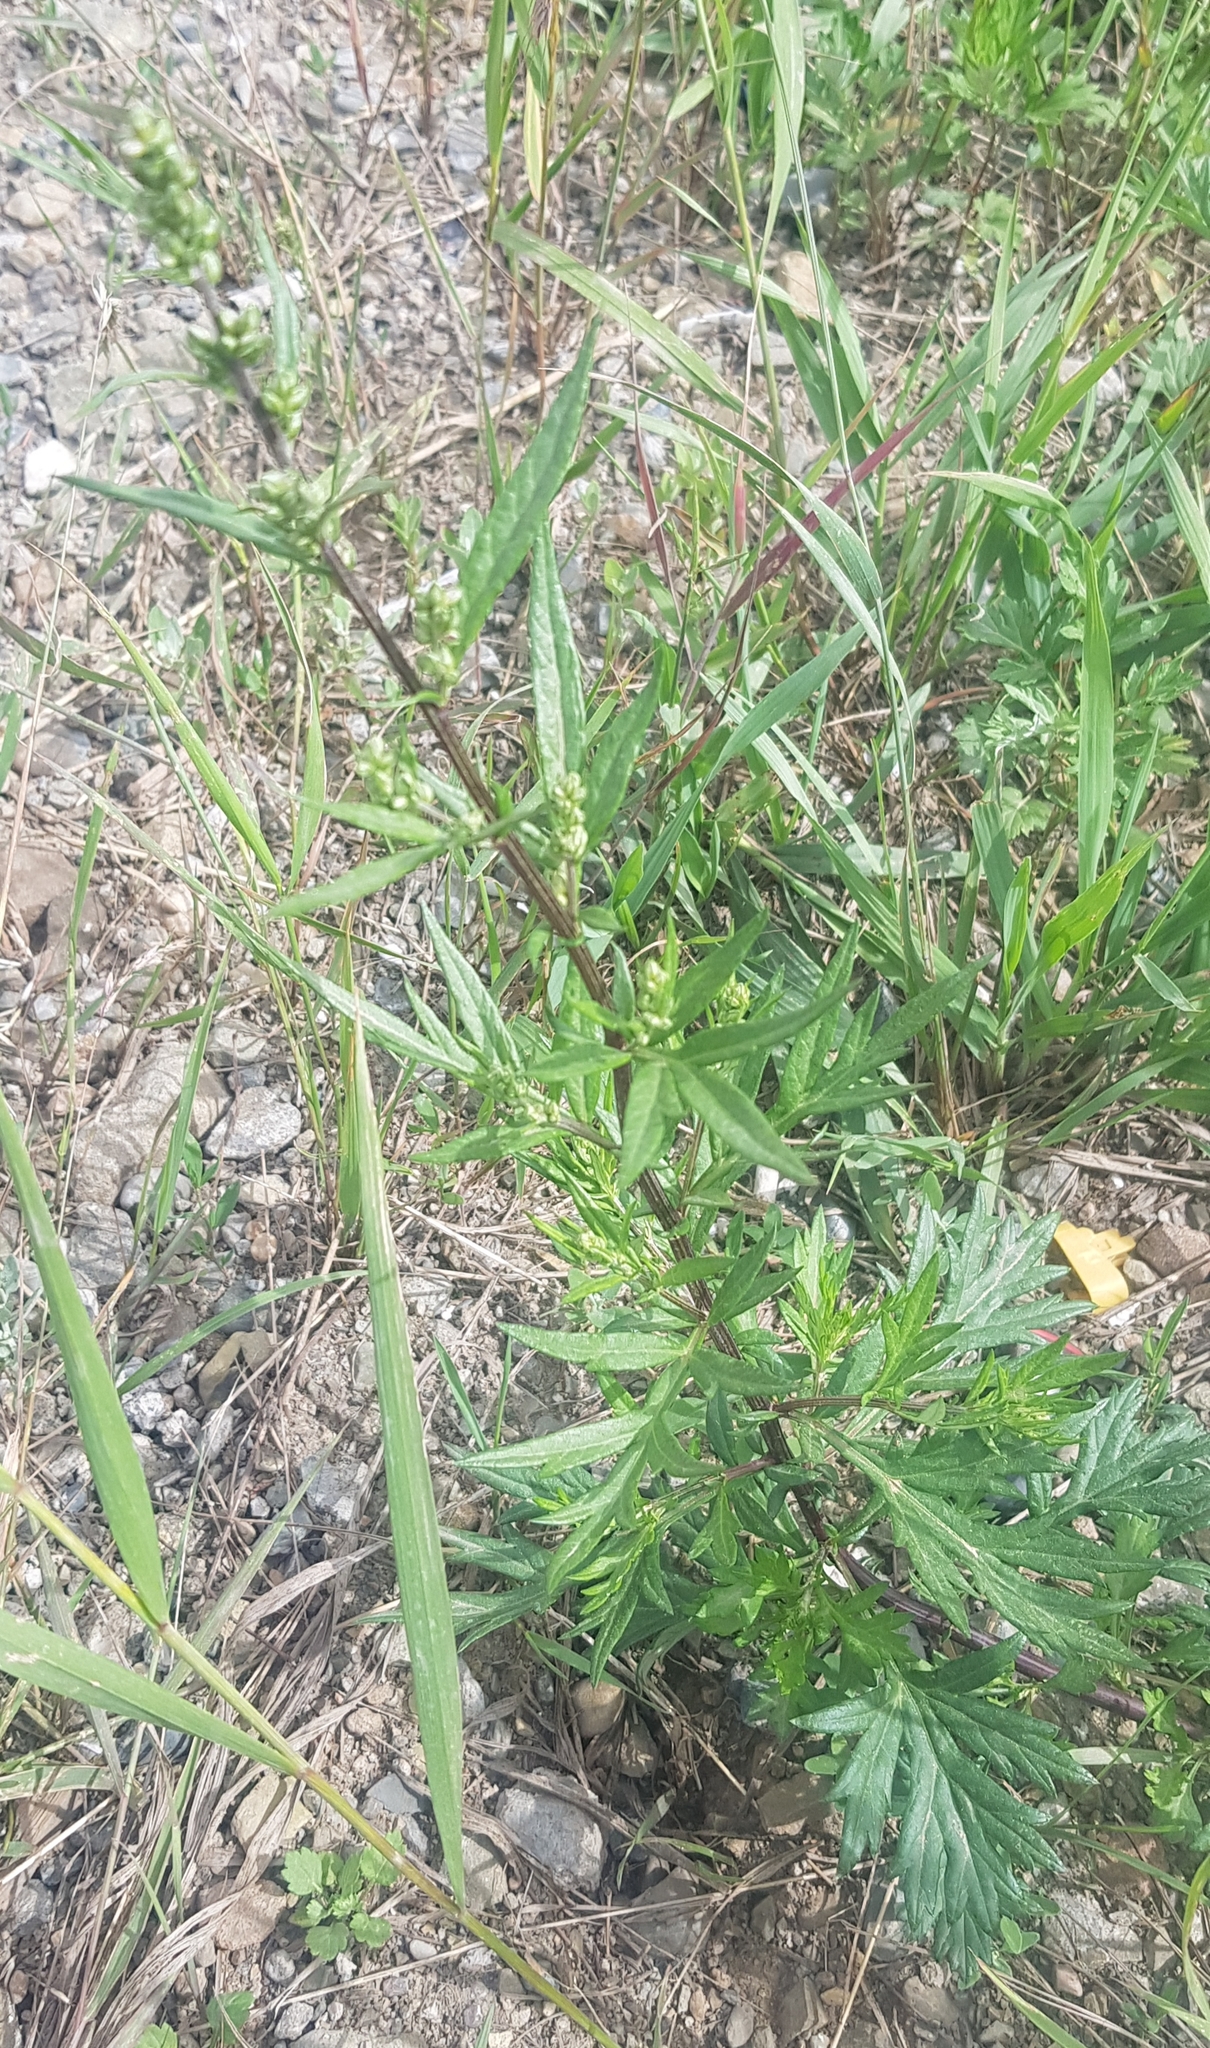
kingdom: Plantae
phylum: Tracheophyta
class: Magnoliopsida
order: Asterales
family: Asteraceae
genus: Artemisia
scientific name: Artemisia vulgaris
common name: Mugwort
